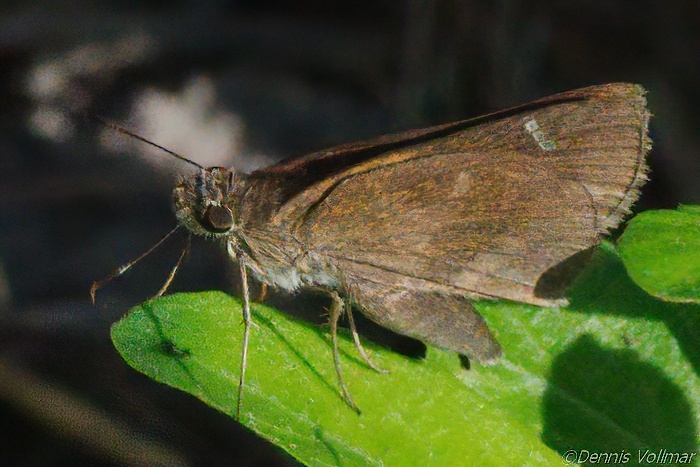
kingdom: Animalia
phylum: Arthropoda
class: Insecta
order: Lepidoptera
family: Hesperiidae
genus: Lerema
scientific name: Lerema accius
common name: Clouded skipper
